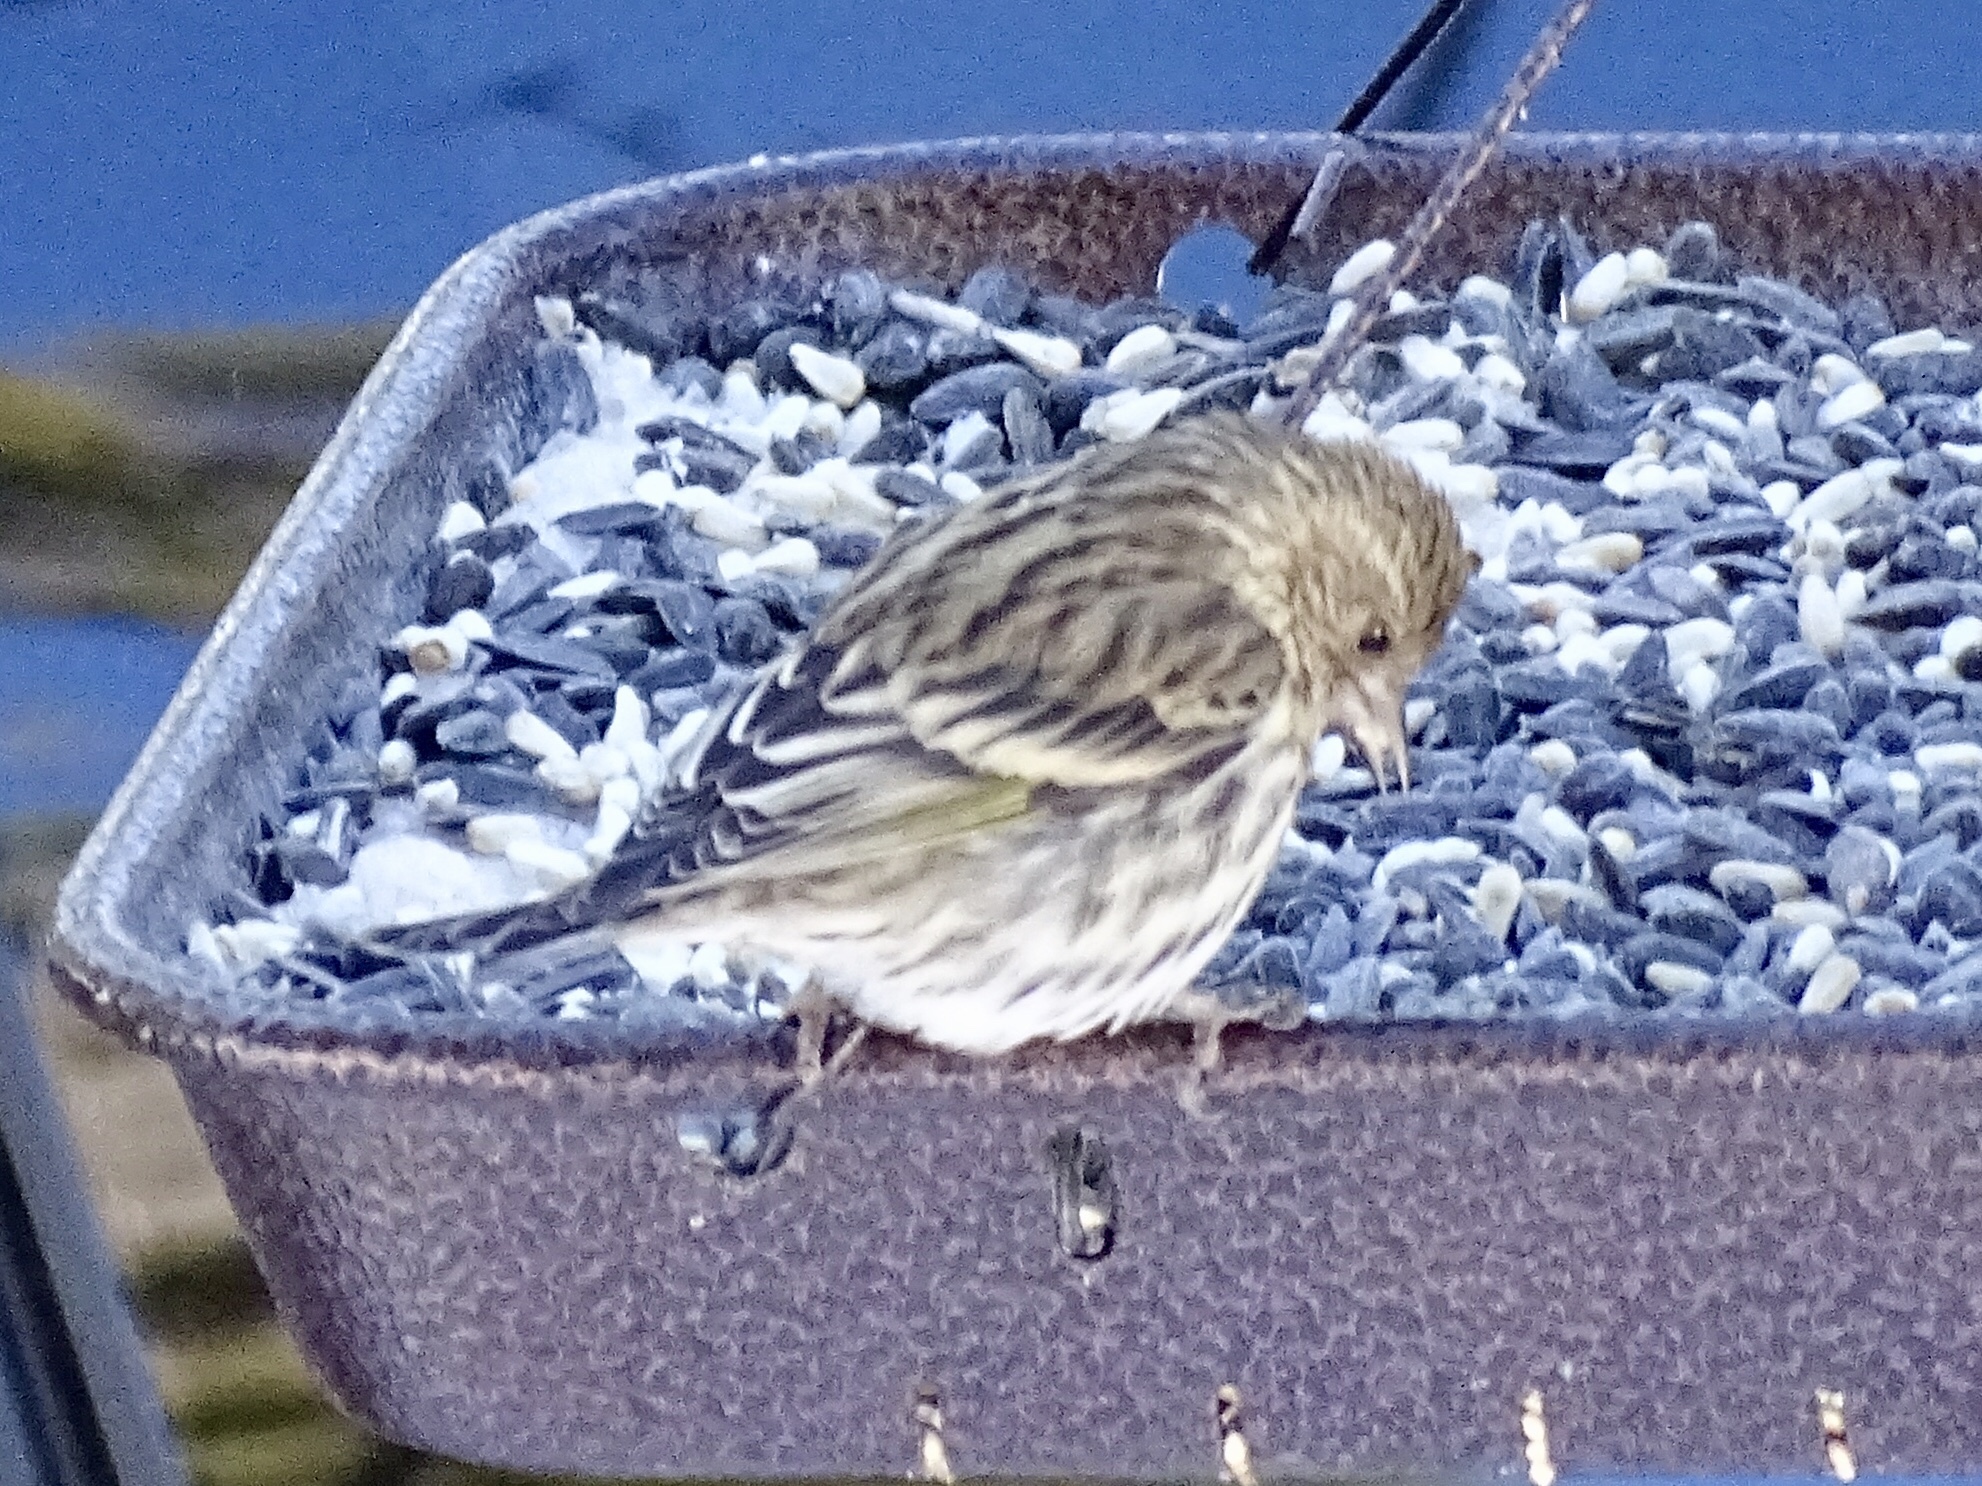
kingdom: Animalia
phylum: Chordata
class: Aves
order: Passeriformes
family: Fringillidae
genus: Spinus
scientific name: Spinus pinus
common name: Pine siskin
